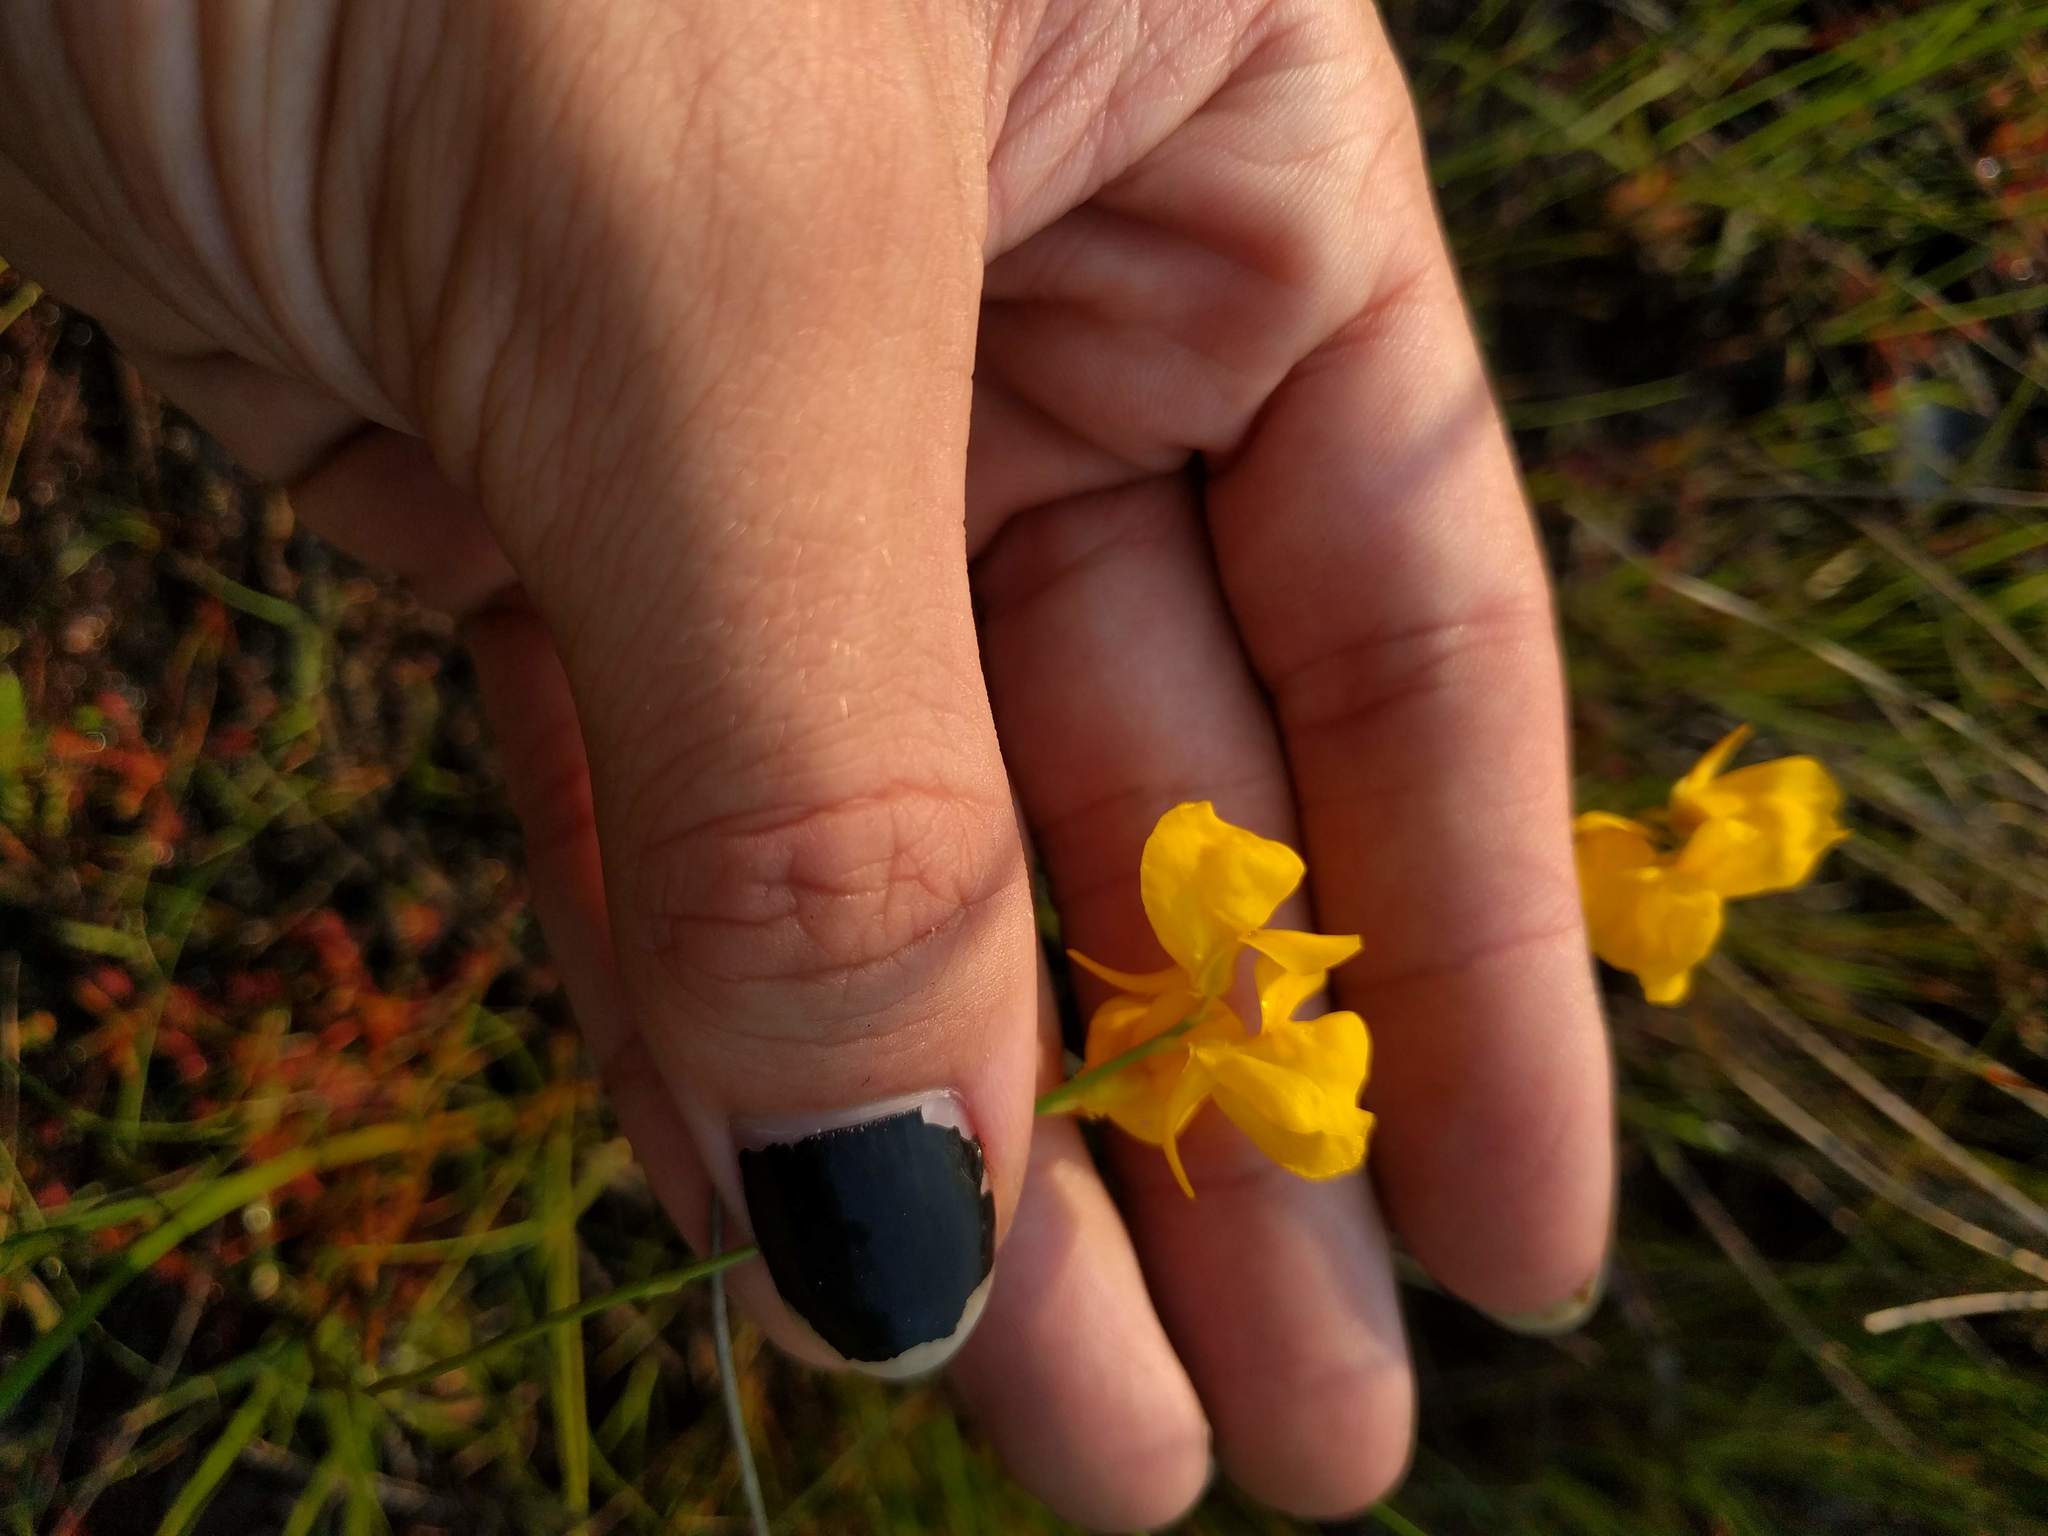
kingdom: Plantae
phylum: Tracheophyta
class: Magnoliopsida
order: Lamiales
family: Lentibulariaceae
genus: Utricularia
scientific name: Utricularia cornuta
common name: Horned bladderwort
